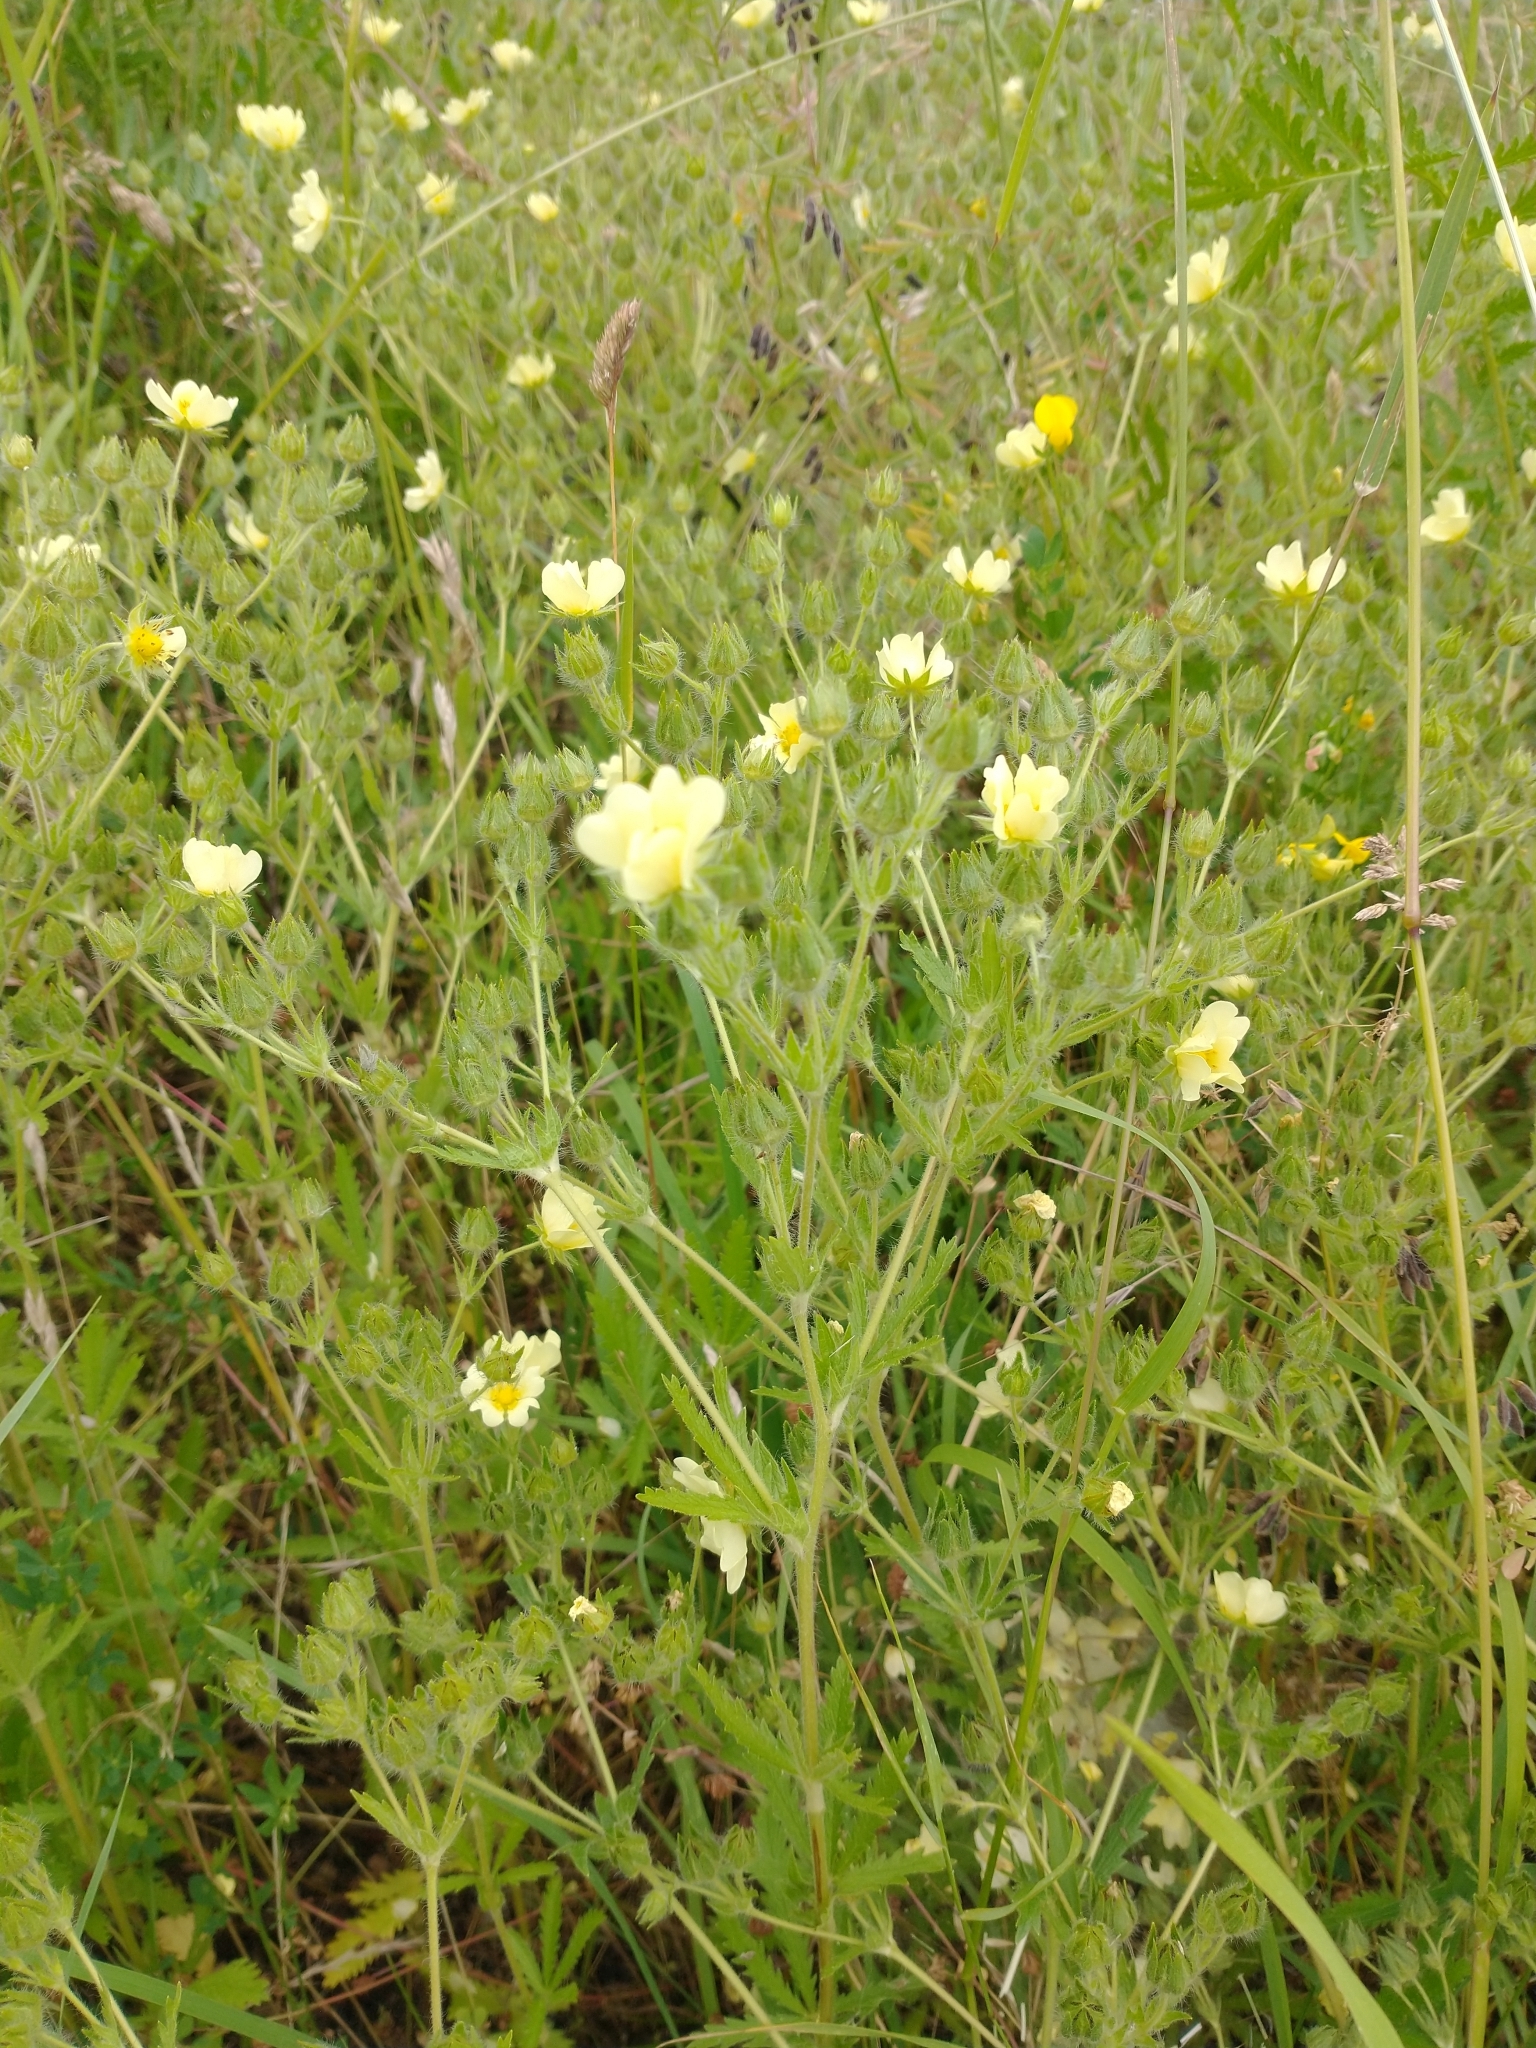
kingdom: Plantae
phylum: Tracheophyta
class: Magnoliopsida
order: Rosales
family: Rosaceae
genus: Potentilla
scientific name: Potentilla recta
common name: Sulphur cinquefoil
